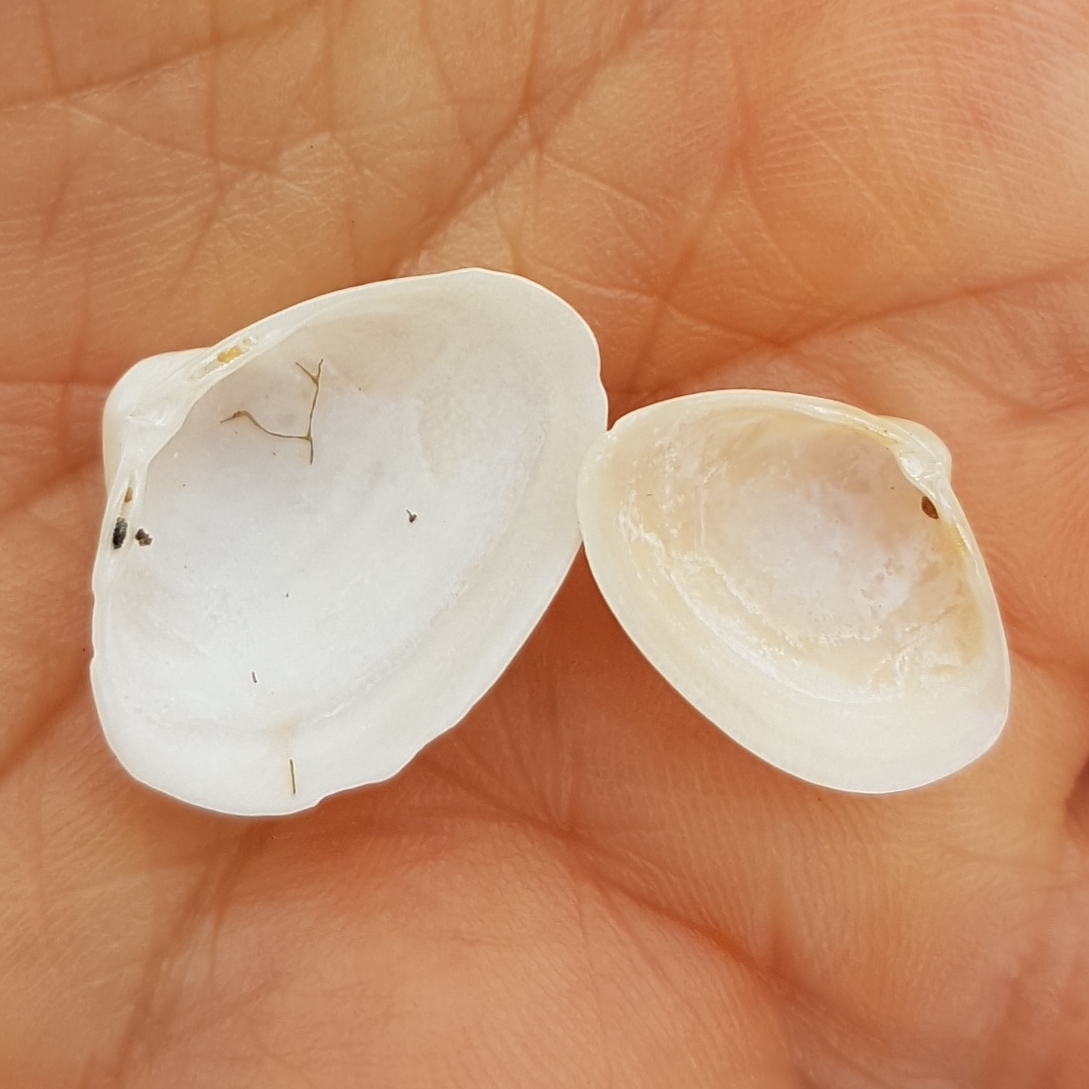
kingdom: Animalia
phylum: Mollusca
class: Bivalvia
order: Venerida
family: Mactridae
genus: Spisula
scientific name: Spisula subtruncata
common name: Cut trough shell
